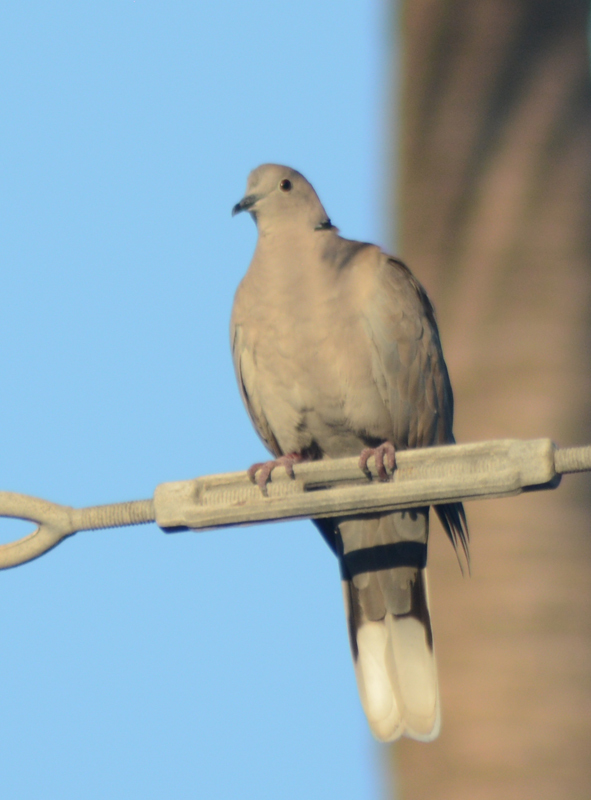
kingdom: Animalia
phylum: Chordata
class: Aves
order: Columbiformes
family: Columbidae
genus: Streptopelia
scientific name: Streptopelia decaocto
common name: Eurasian collared dove
